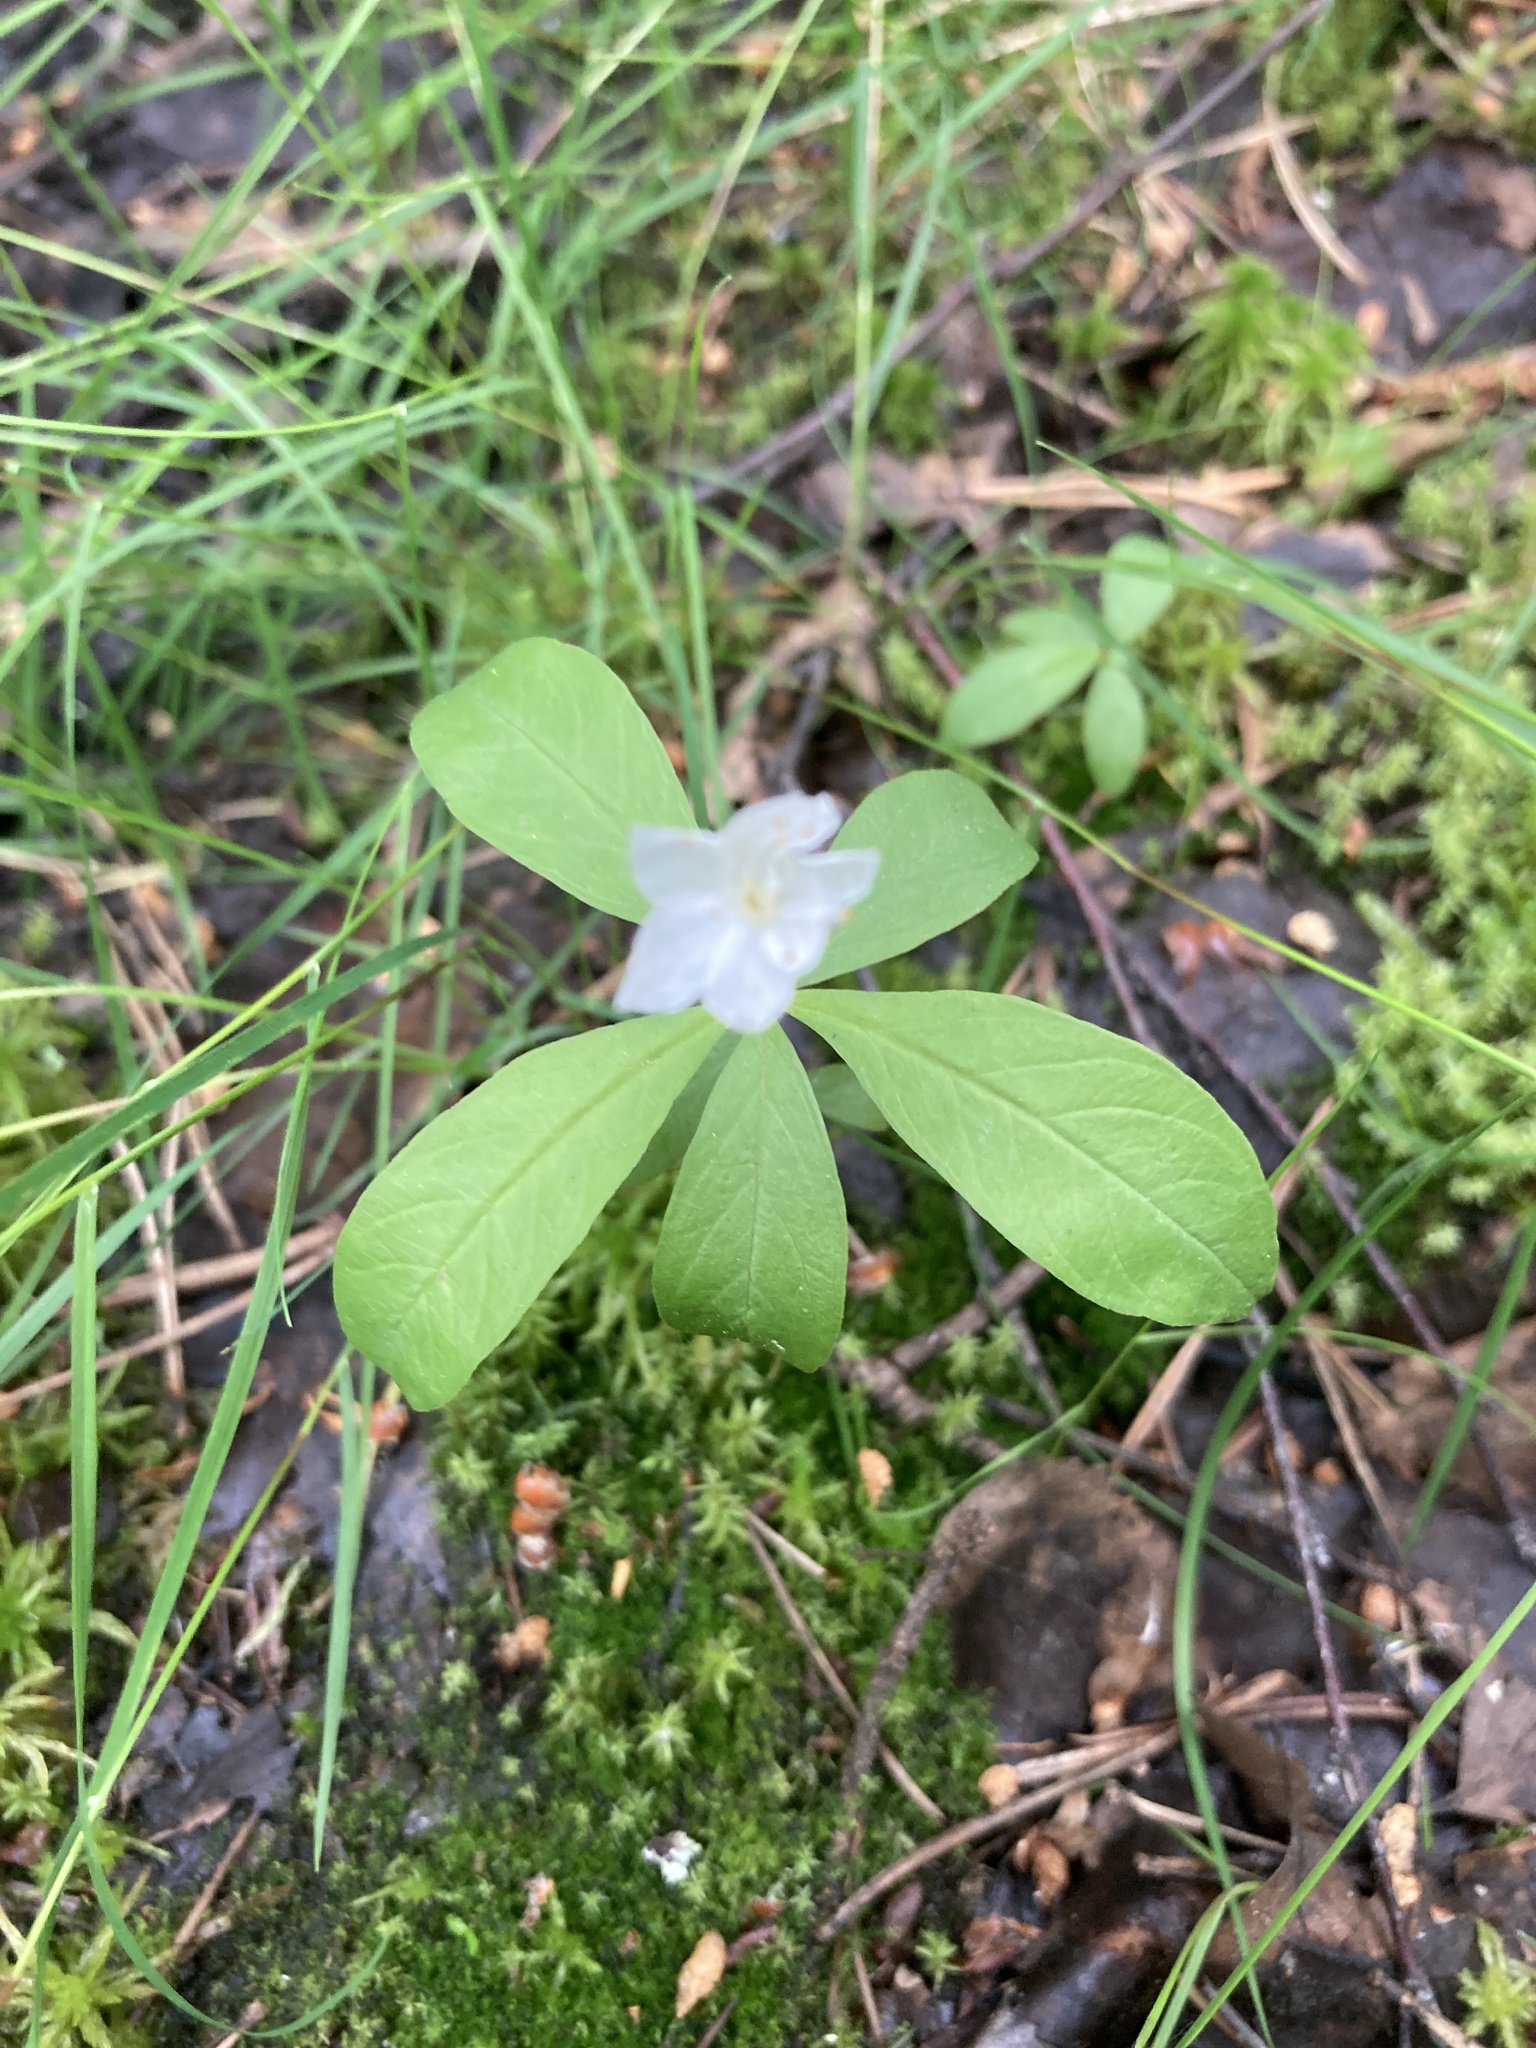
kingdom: Plantae
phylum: Tracheophyta
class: Magnoliopsida
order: Ericales
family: Primulaceae
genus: Lysimachia
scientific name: Lysimachia europaea
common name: Arctic starflower
